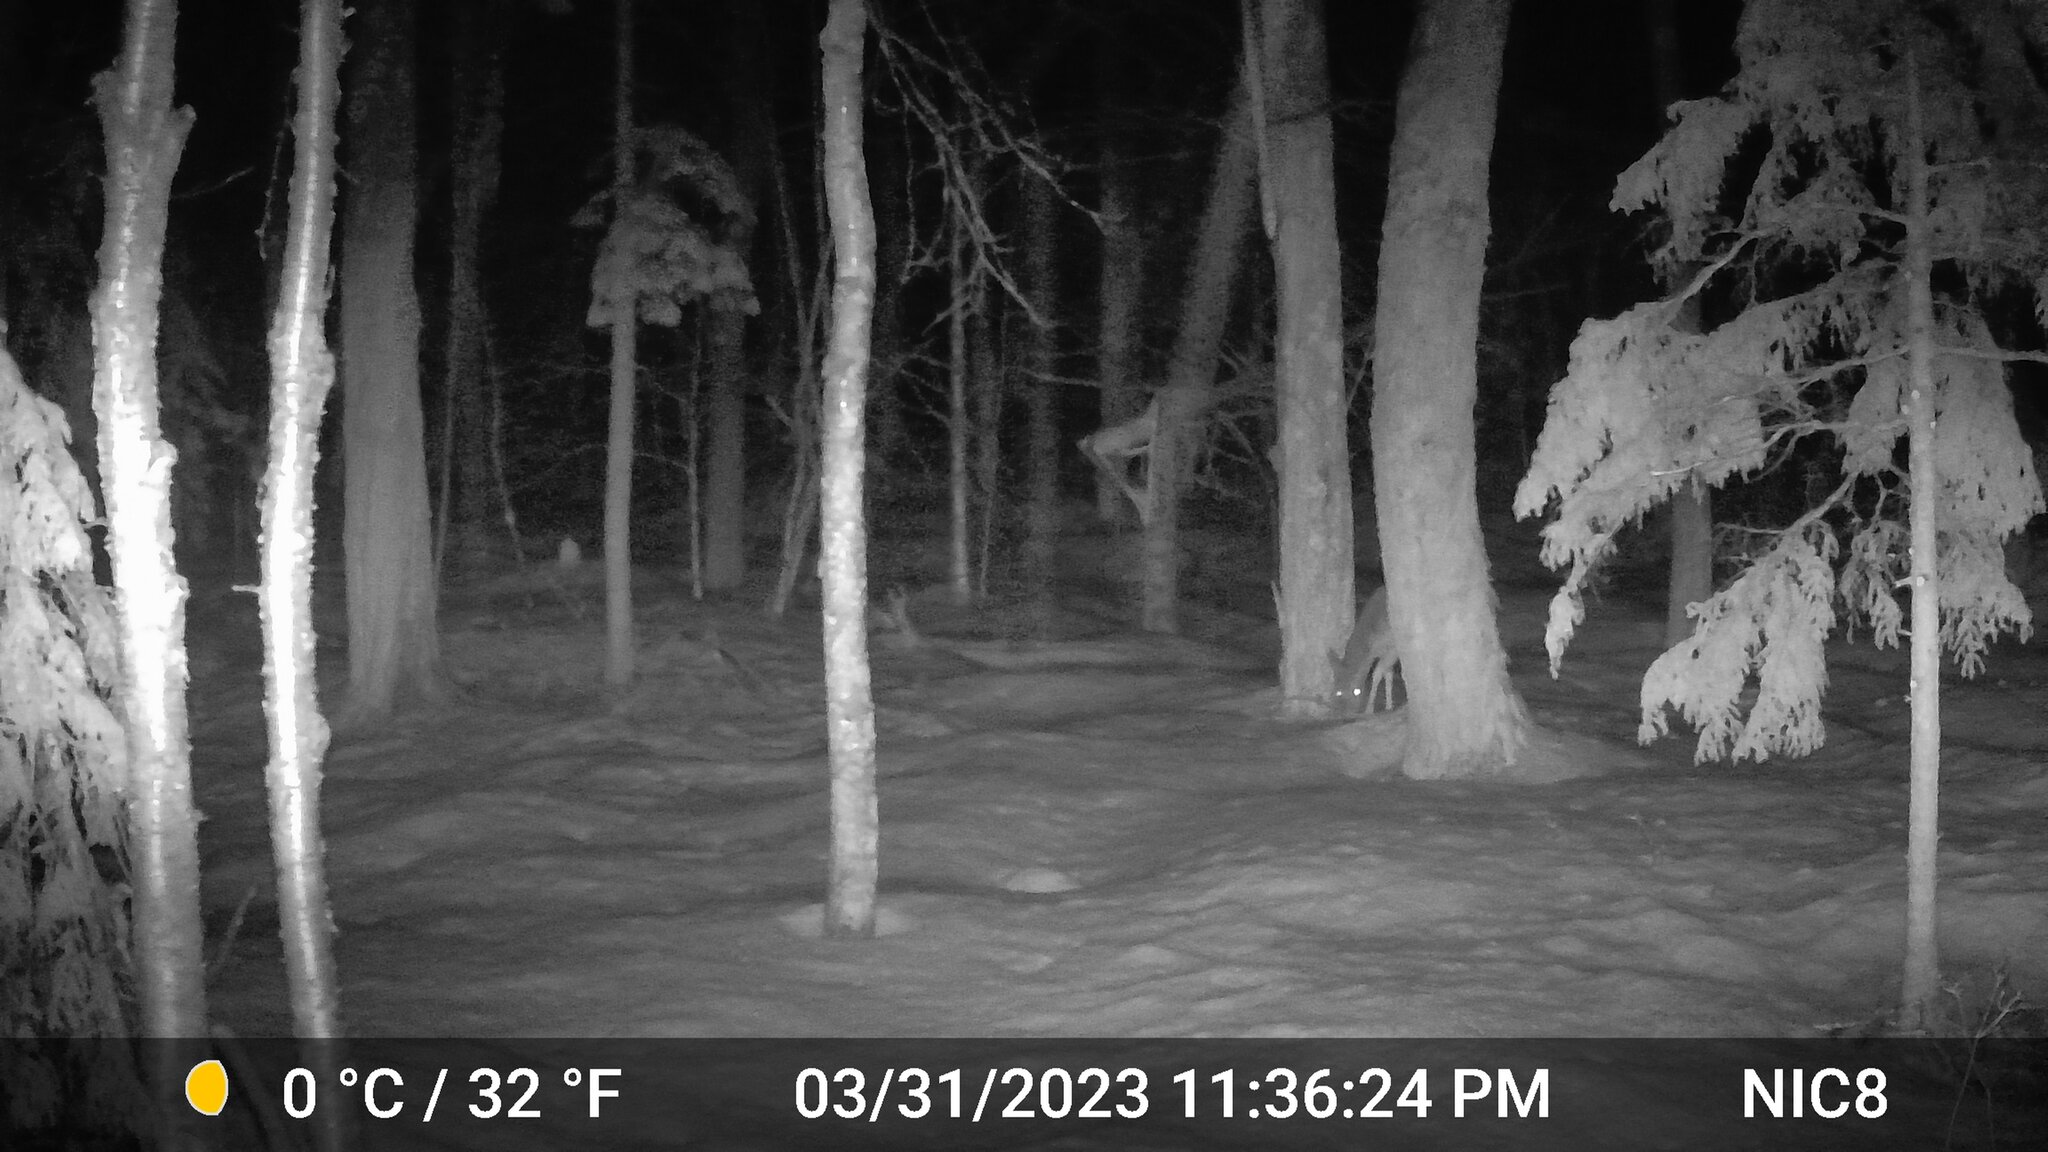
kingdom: Animalia
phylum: Chordata
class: Mammalia
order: Artiodactyla
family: Cervidae
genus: Odocoileus
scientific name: Odocoileus virginianus
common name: White-tailed deer
